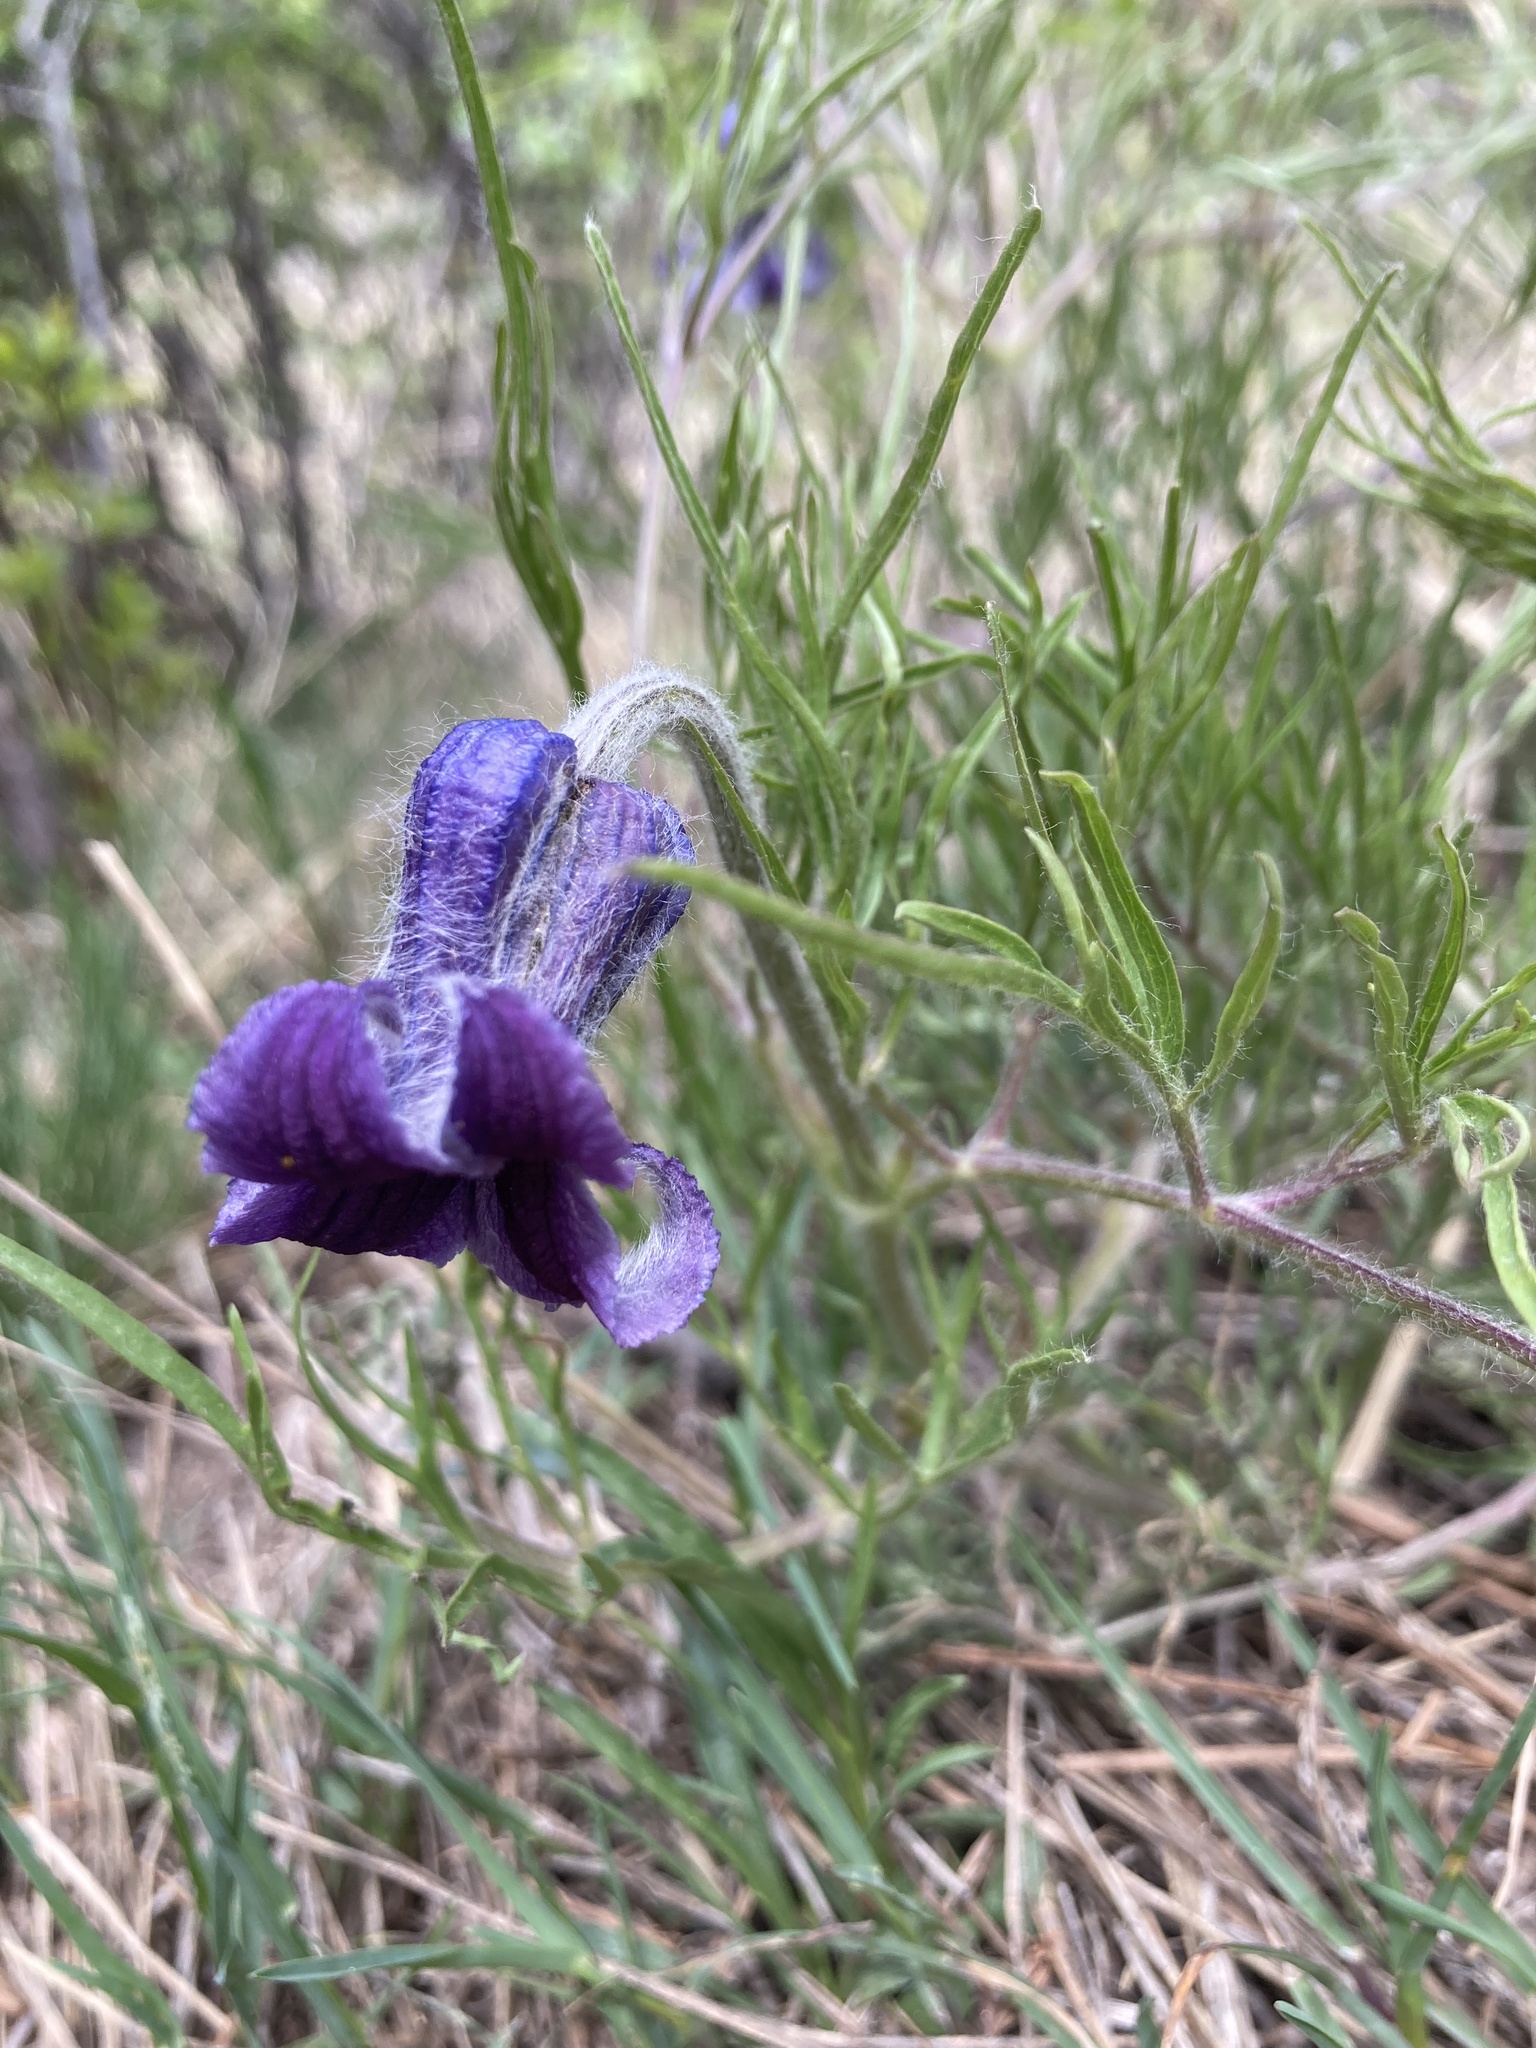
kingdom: Plantae
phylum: Tracheophyta
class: Magnoliopsida
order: Ranunculales
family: Ranunculaceae
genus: Clematis
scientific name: Clematis hirsutissima
